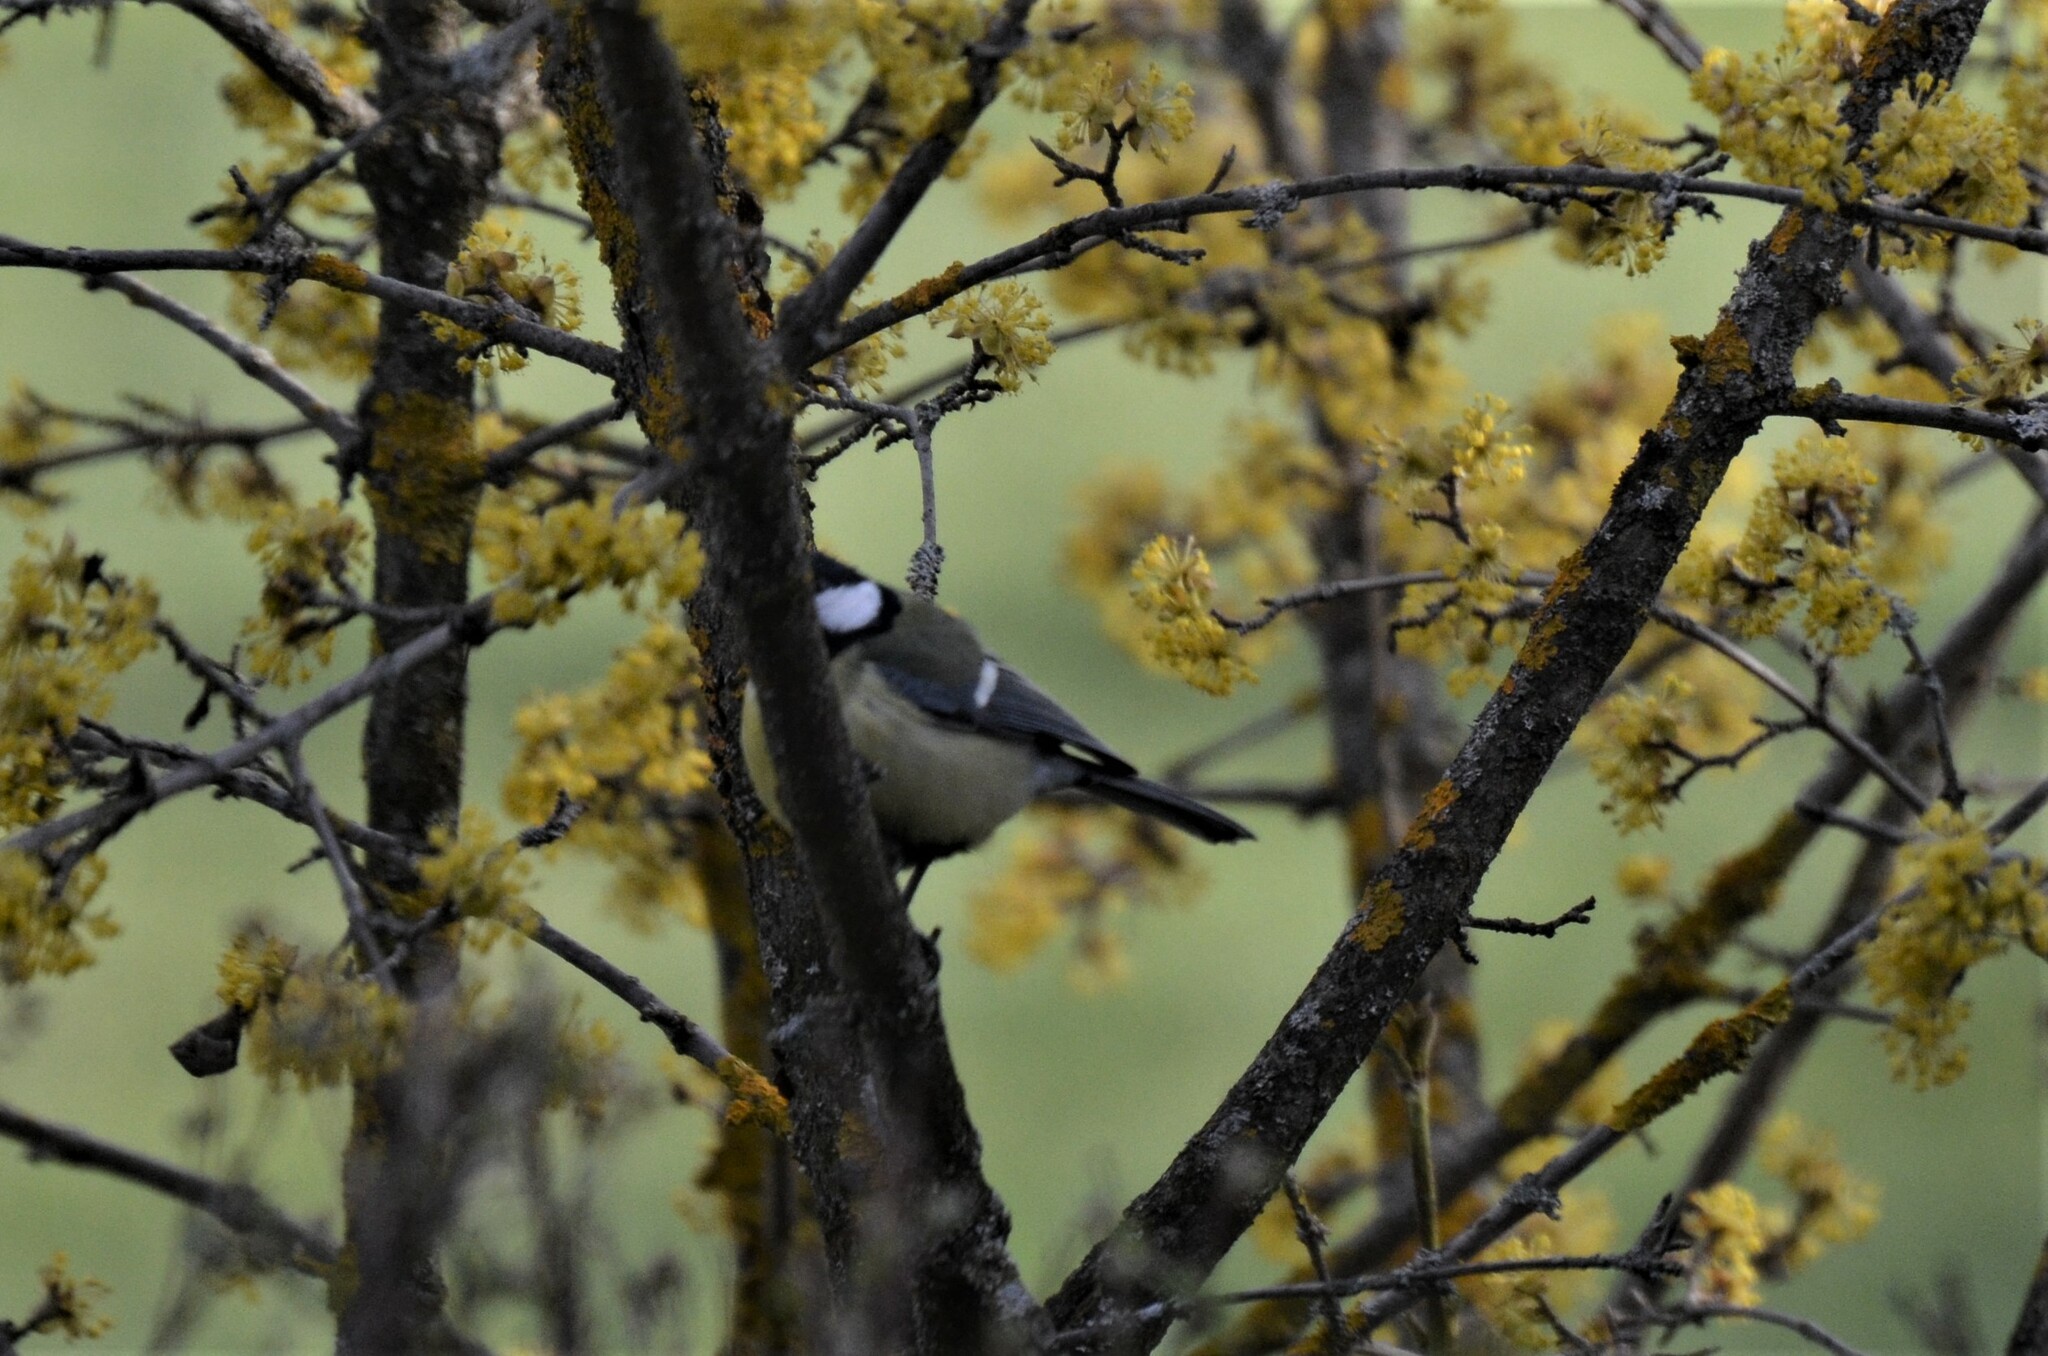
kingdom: Animalia
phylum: Chordata
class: Aves
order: Passeriformes
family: Paridae
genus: Parus
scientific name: Parus major
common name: Great tit
